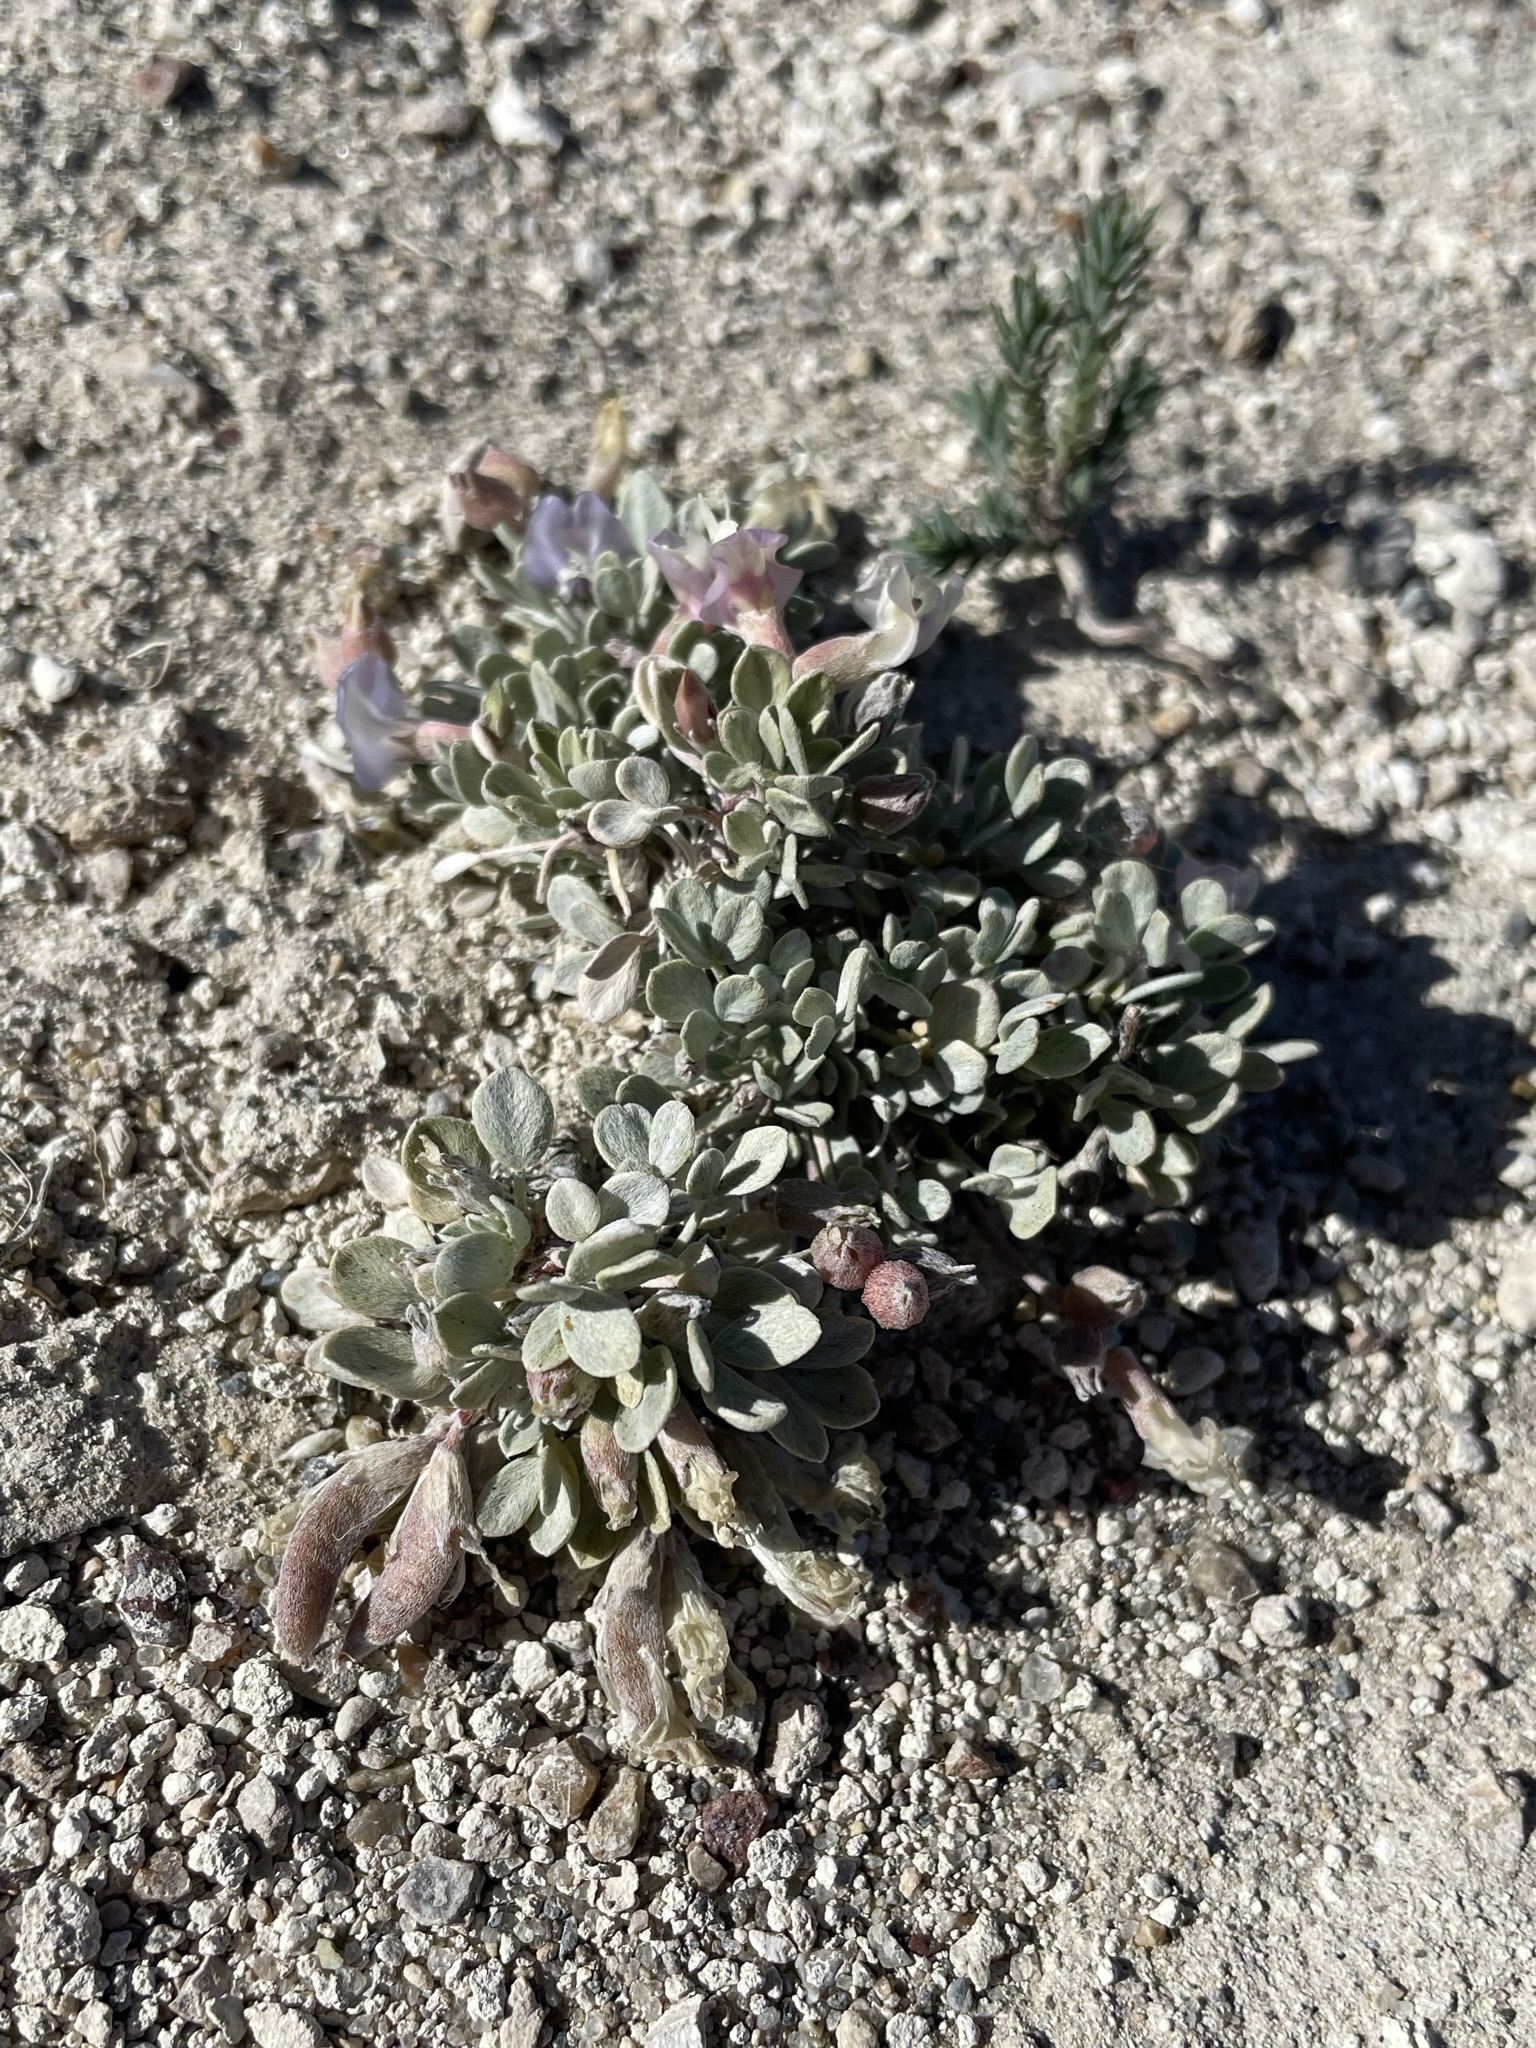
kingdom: Plantae
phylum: Tracheophyta
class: Magnoliopsida
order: Fabales
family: Fabaceae
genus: Astragalus
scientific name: Astragalus calycosus
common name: King's milkvetch
